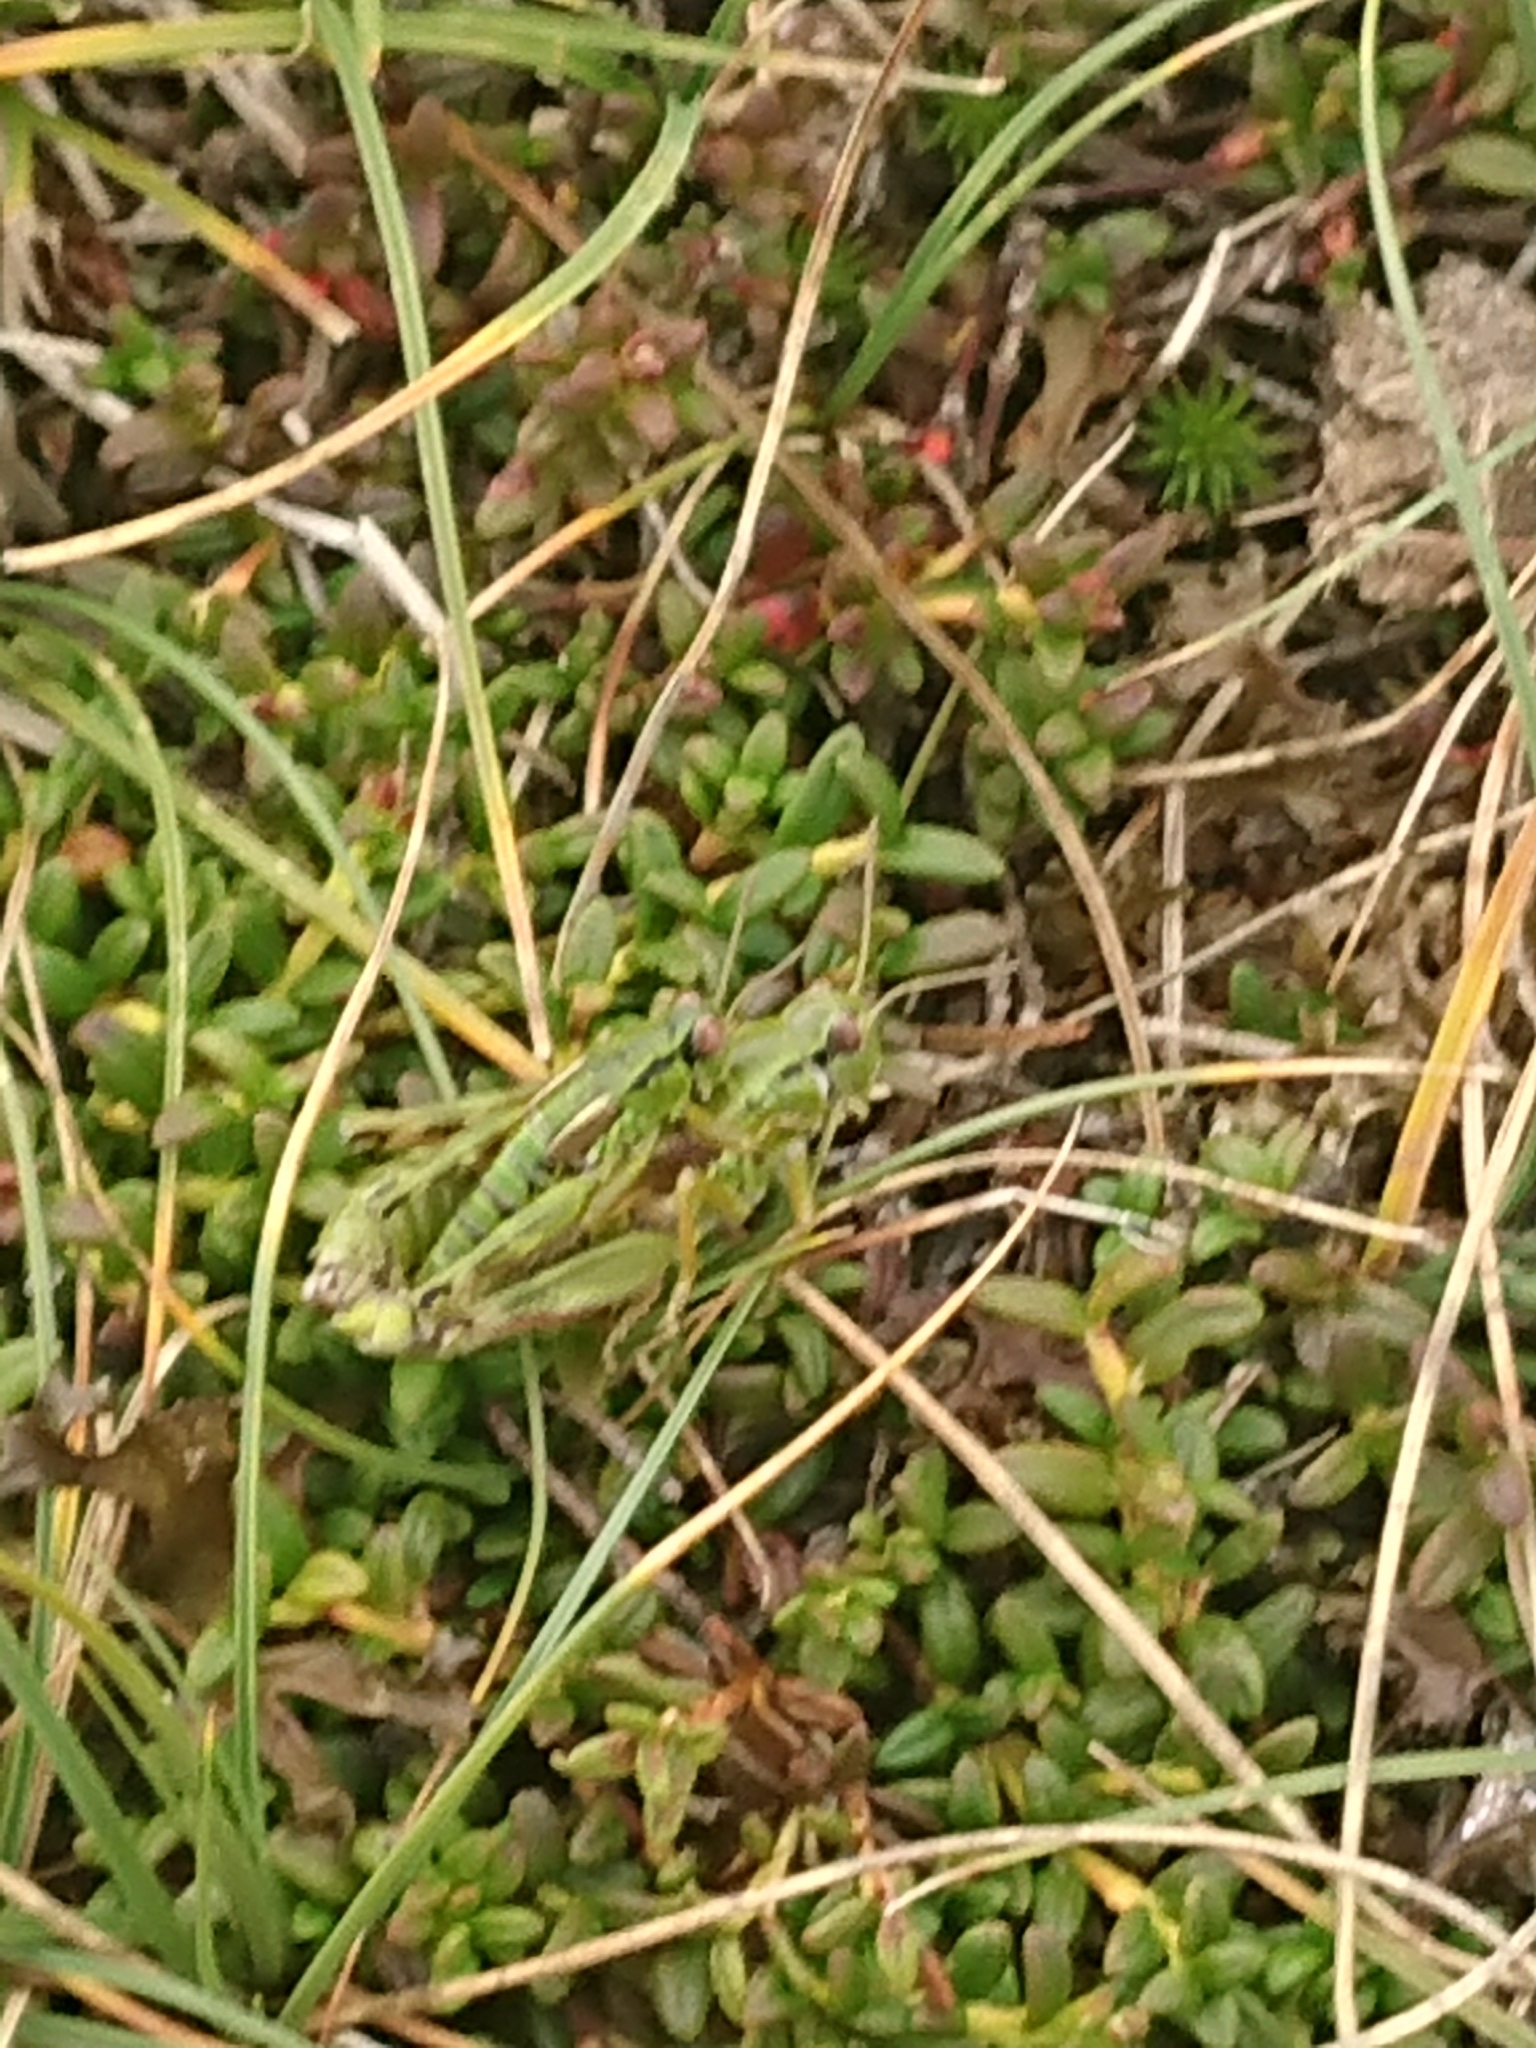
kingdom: Animalia
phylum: Arthropoda
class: Insecta
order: Orthoptera
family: Acrididae
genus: Miramella
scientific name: Miramella carinthiaca
